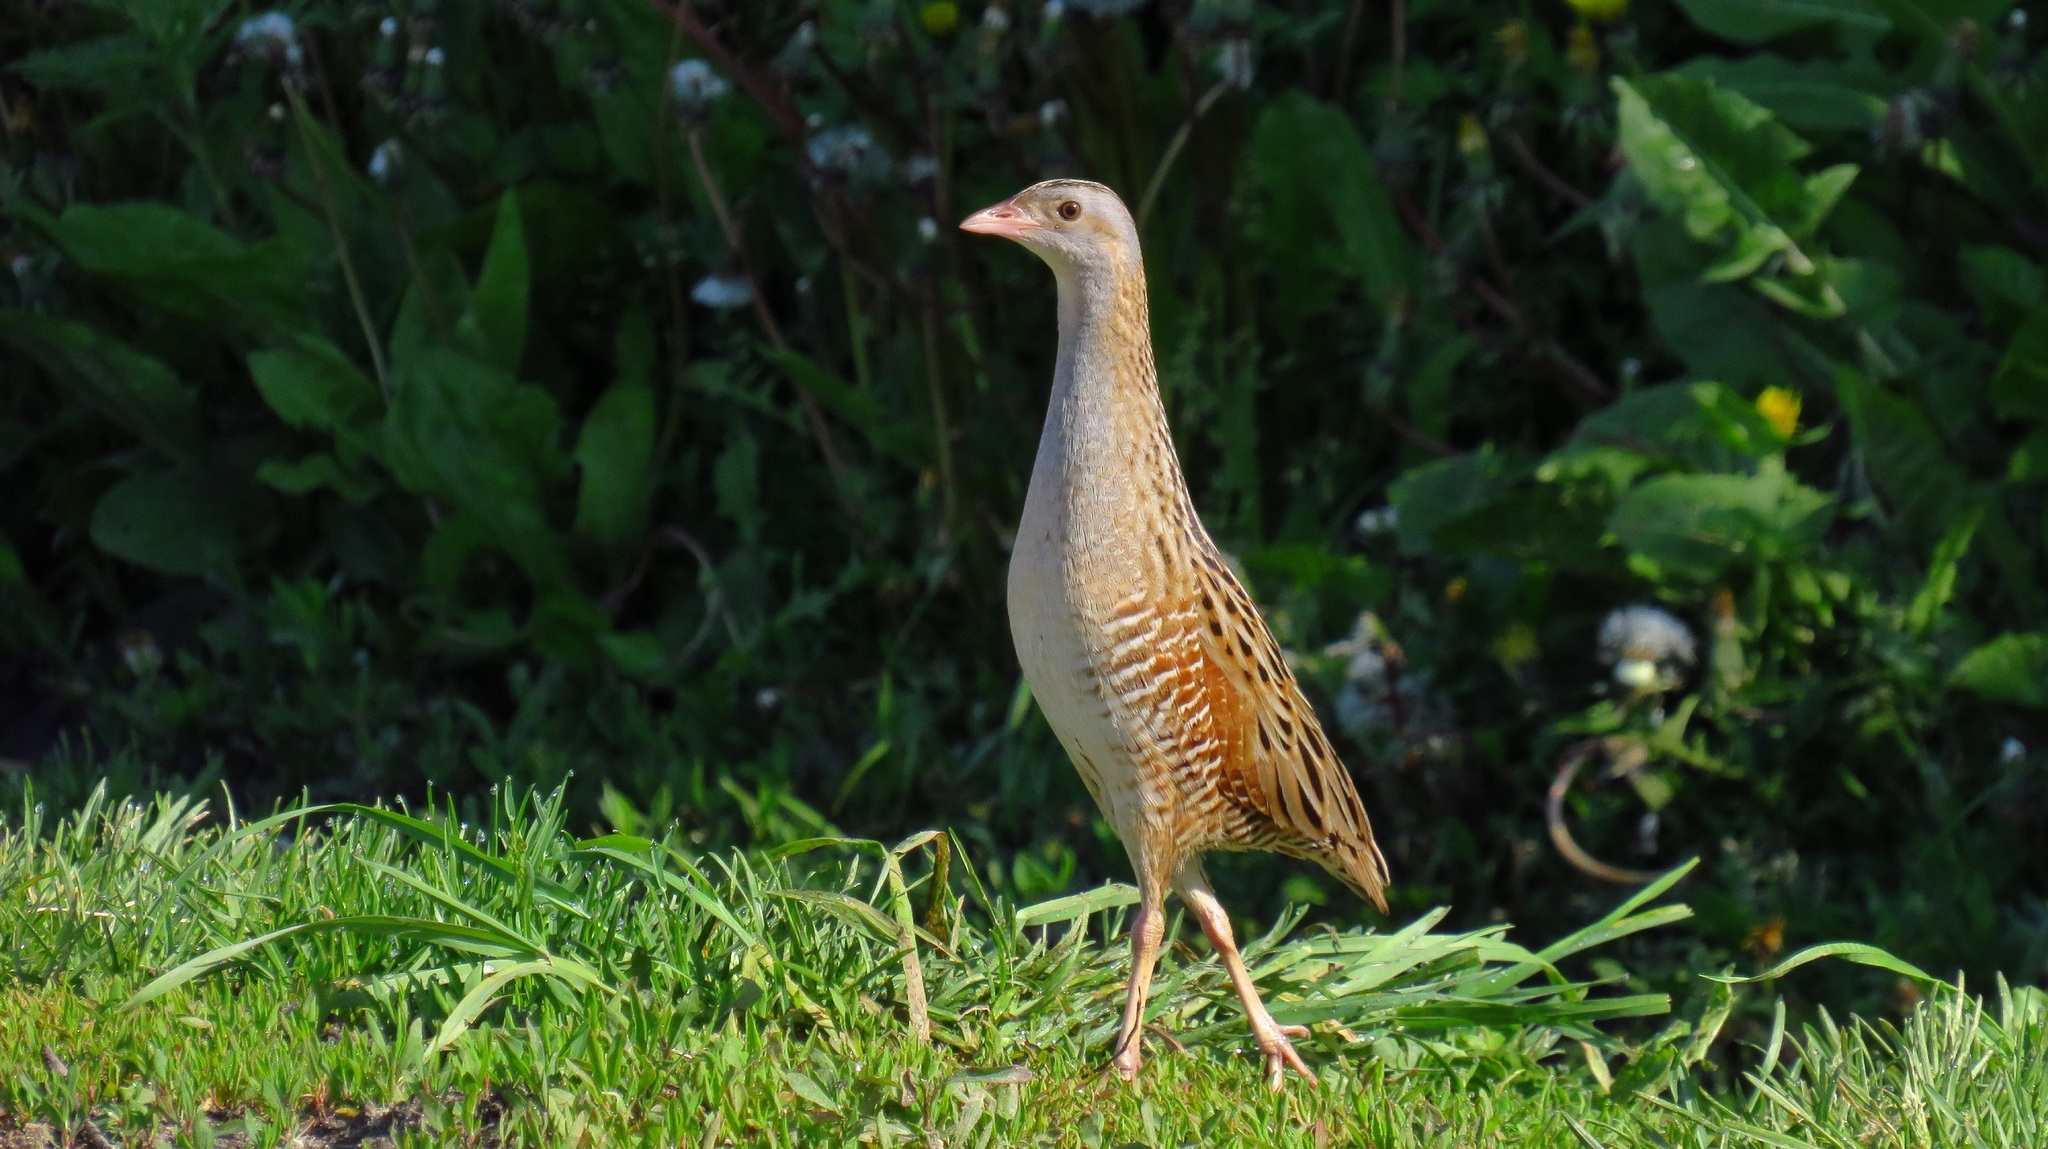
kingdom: Animalia
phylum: Chordata
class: Aves
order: Gruiformes
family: Rallidae
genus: Crex
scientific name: Crex crex
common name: Corn crake
